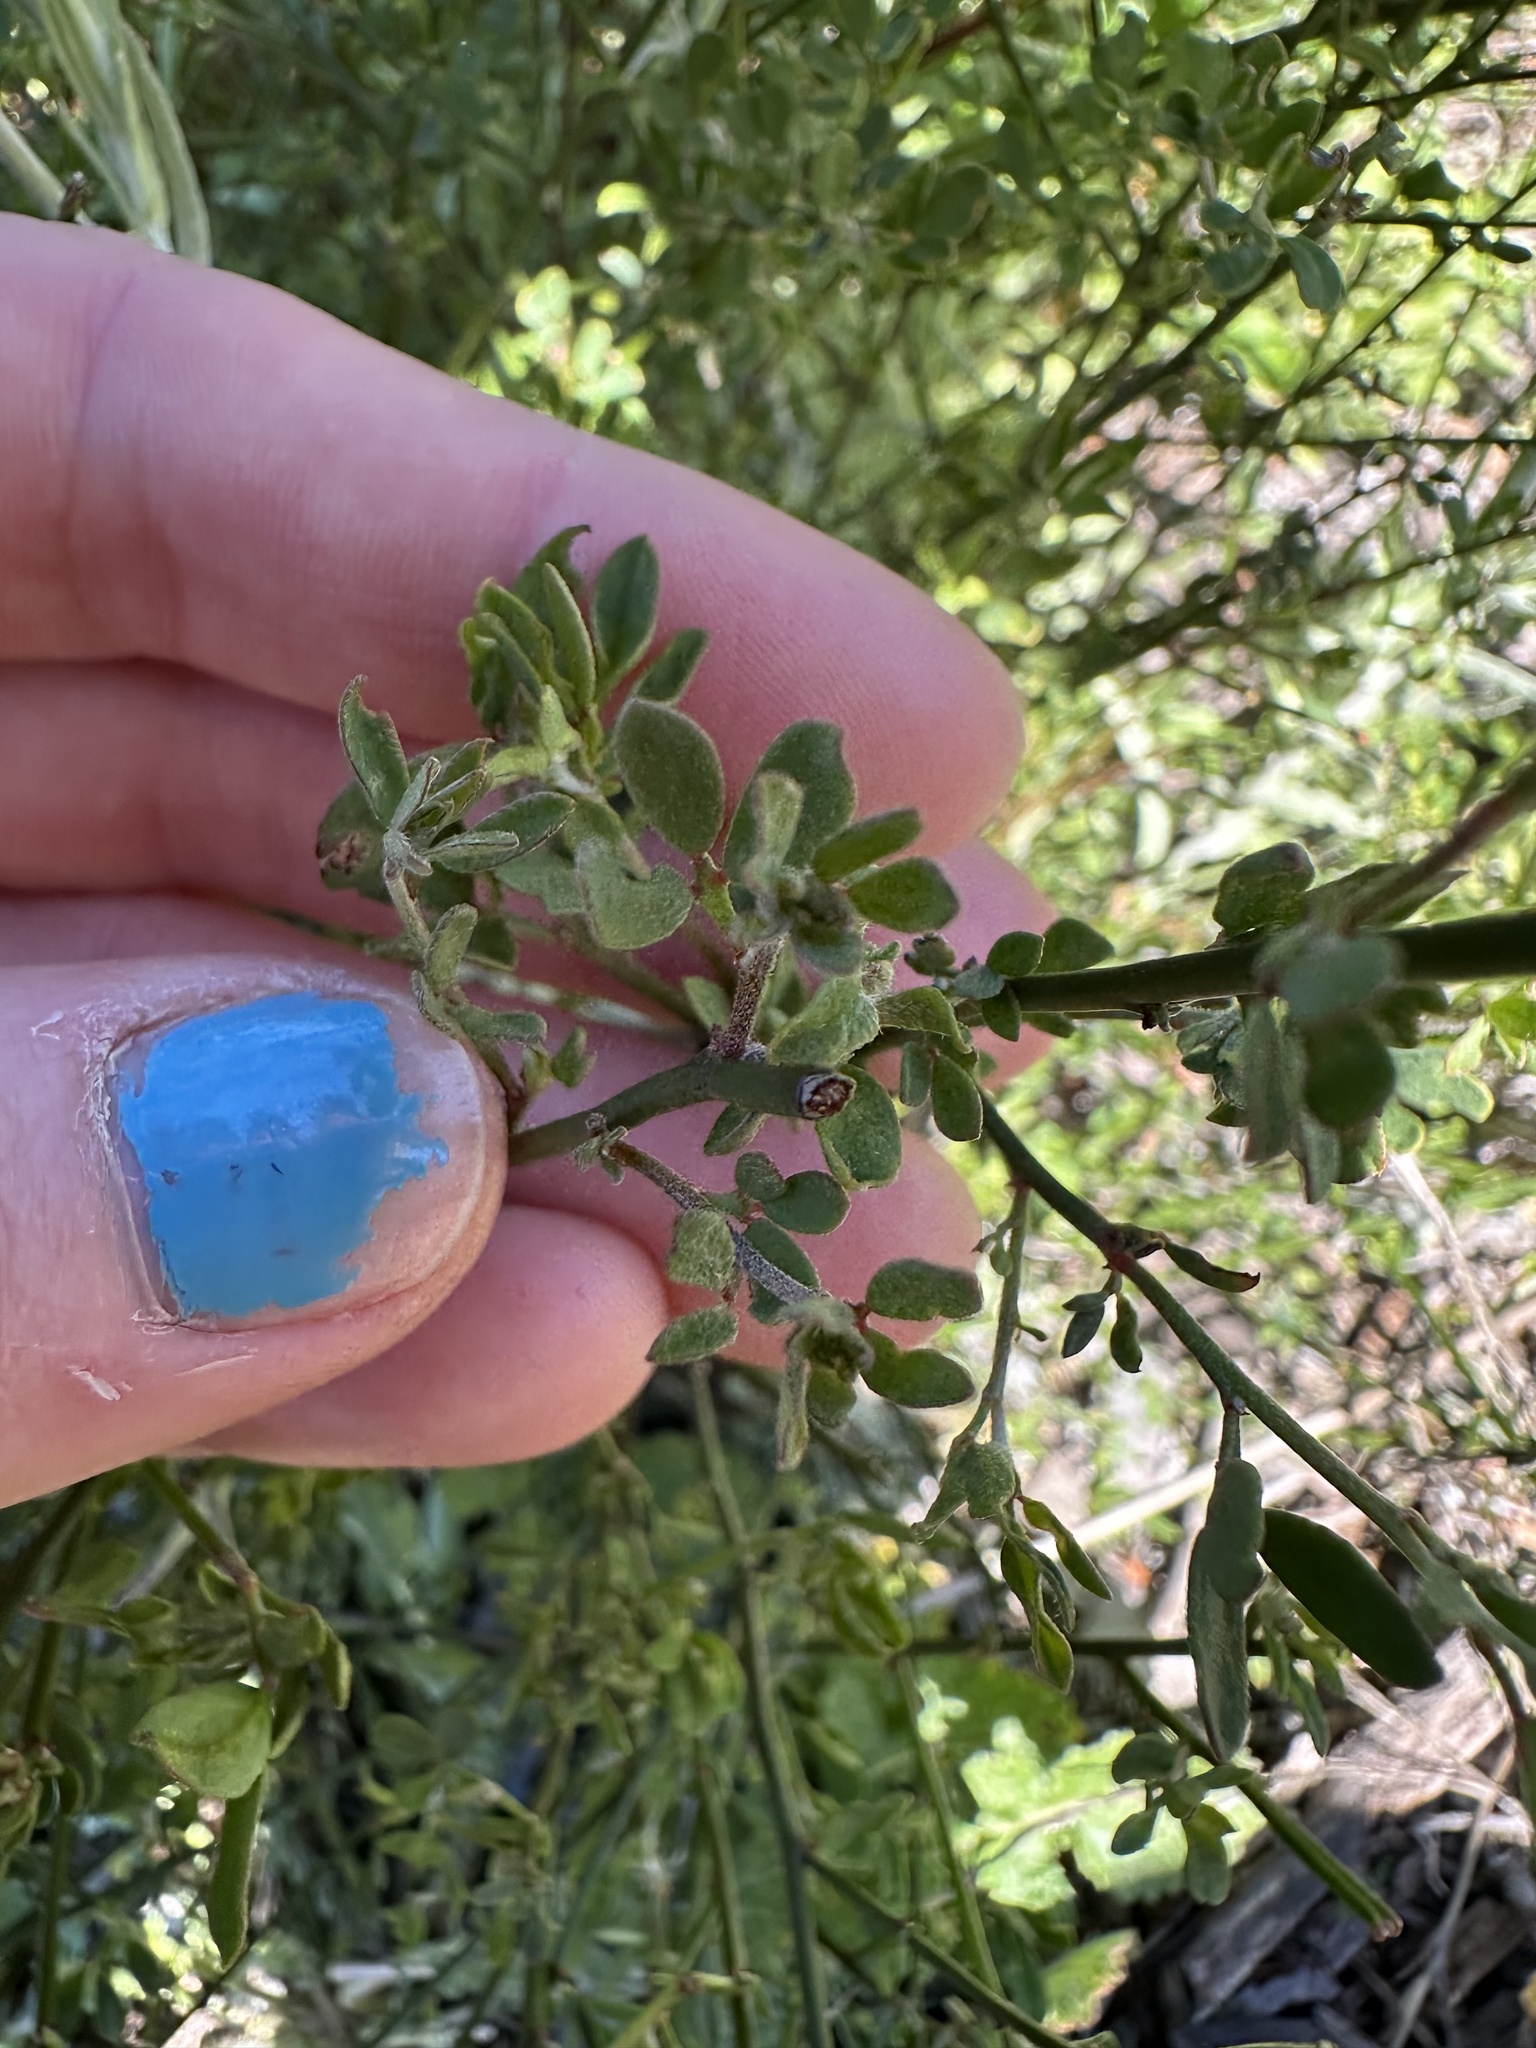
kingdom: Plantae
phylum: Tracheophyta
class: Magnoliopsida
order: Fabales
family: Fabaceae
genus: Acmispon
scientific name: Acmispon glaber
